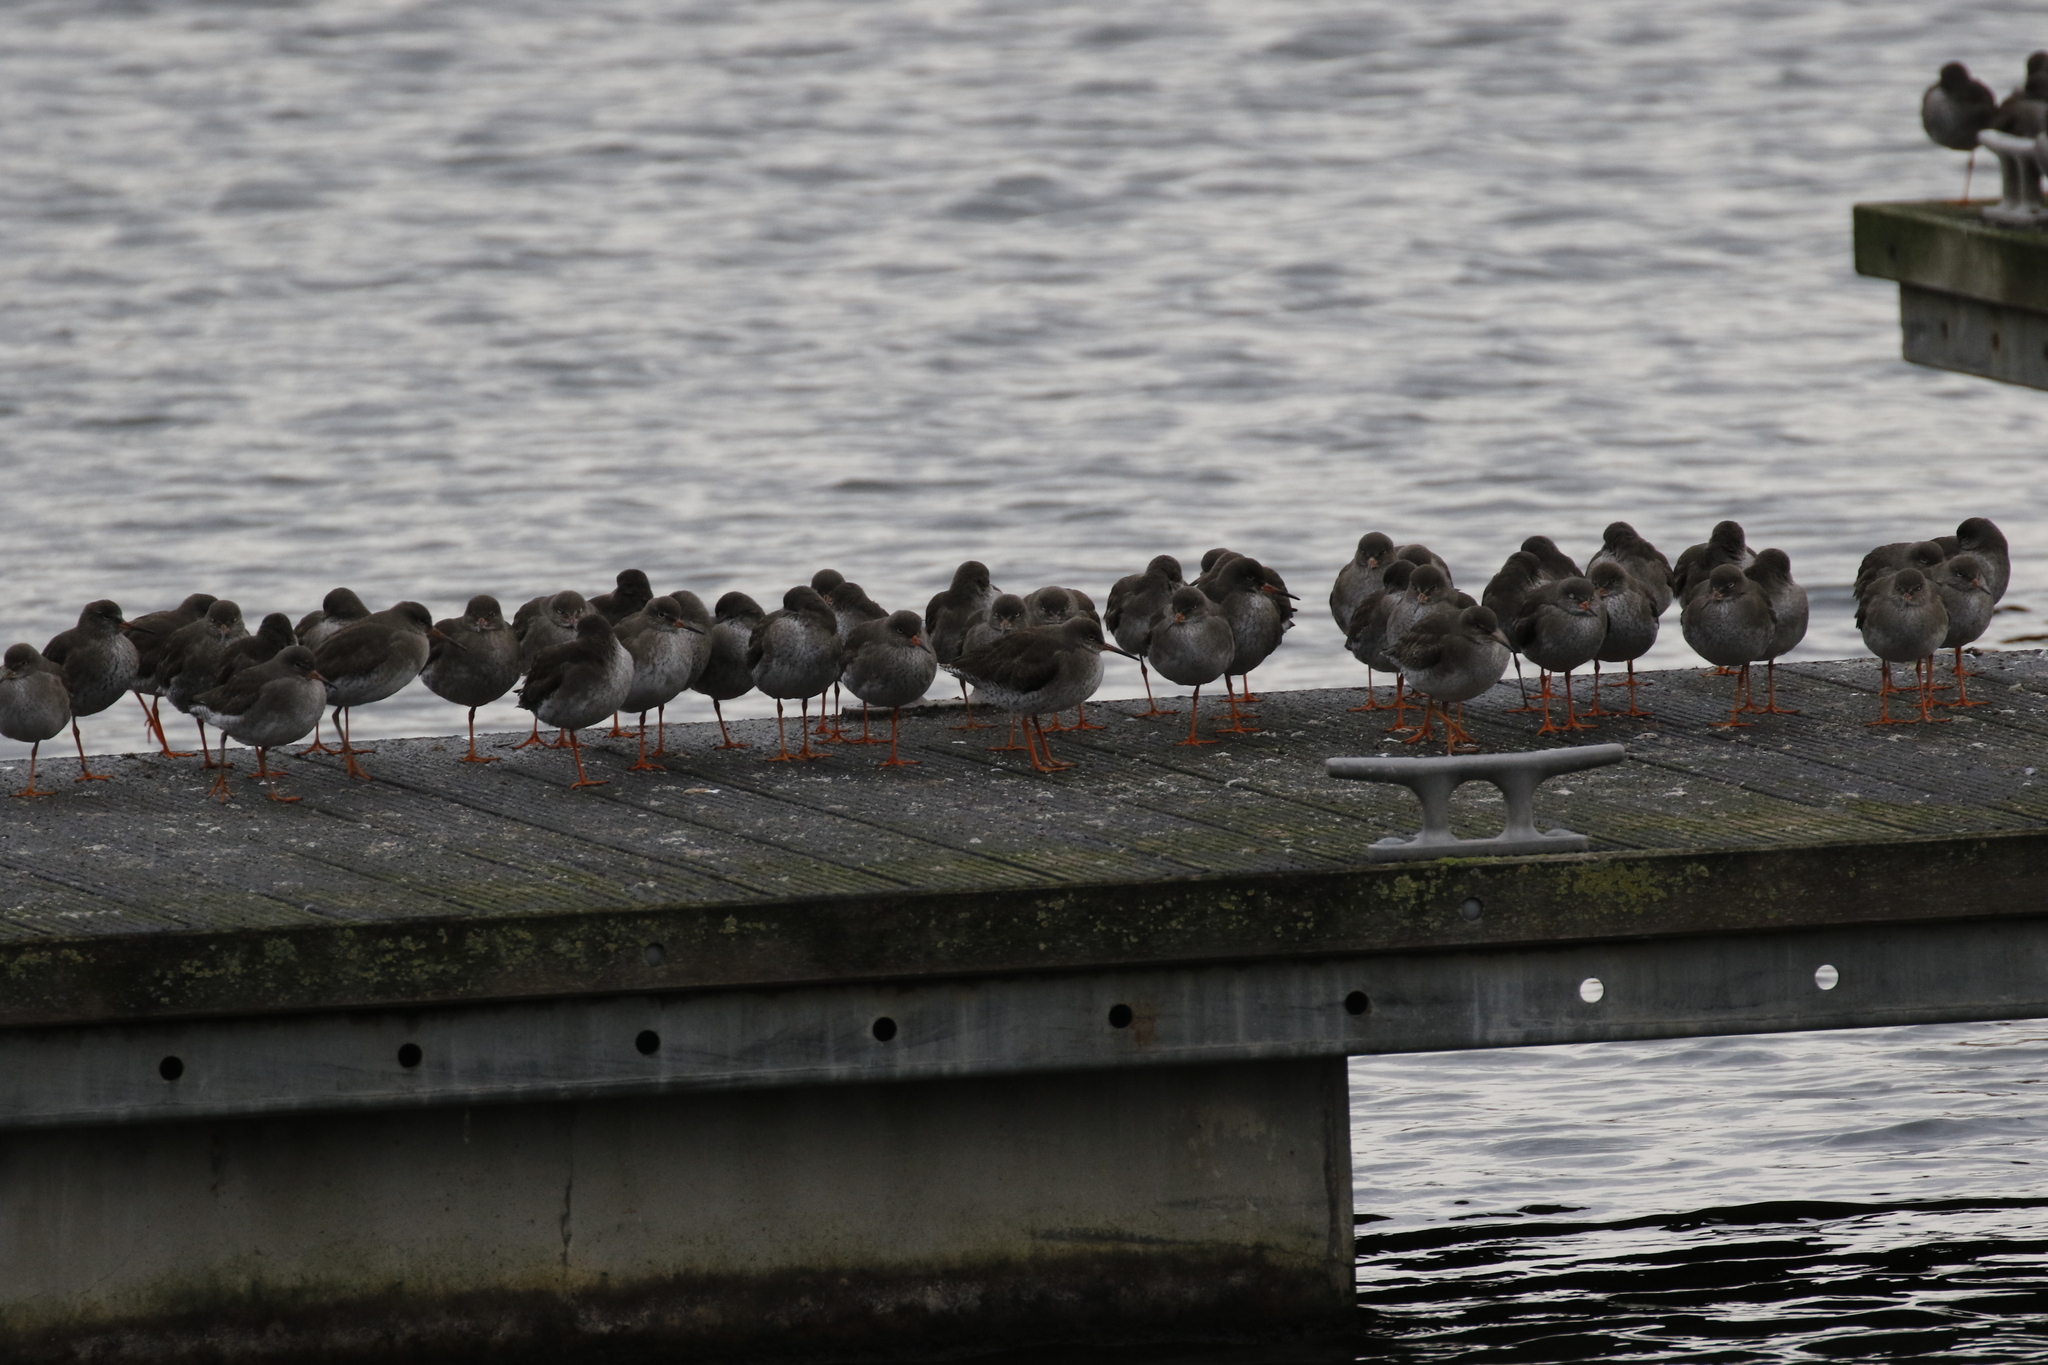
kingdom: Animalia
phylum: Chordata
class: Aves
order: Charadriiformes
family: Scolopacidae
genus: Tringa
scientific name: Tringa totanus
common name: Common redshank
